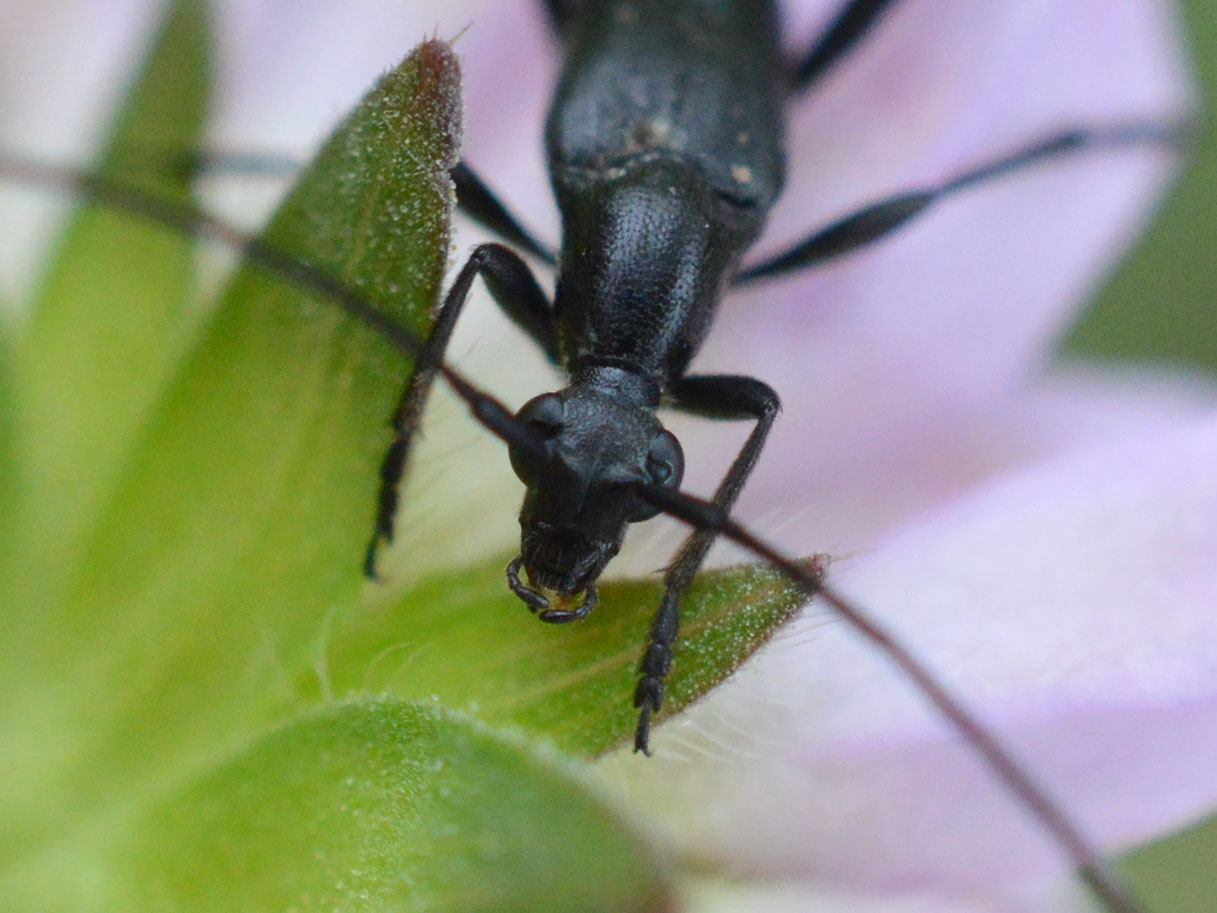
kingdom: Animalia
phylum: Arthropoda
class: Insecta
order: Coleoptera
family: Cerambycidae
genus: Stenurella
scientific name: Stenurella nigra
